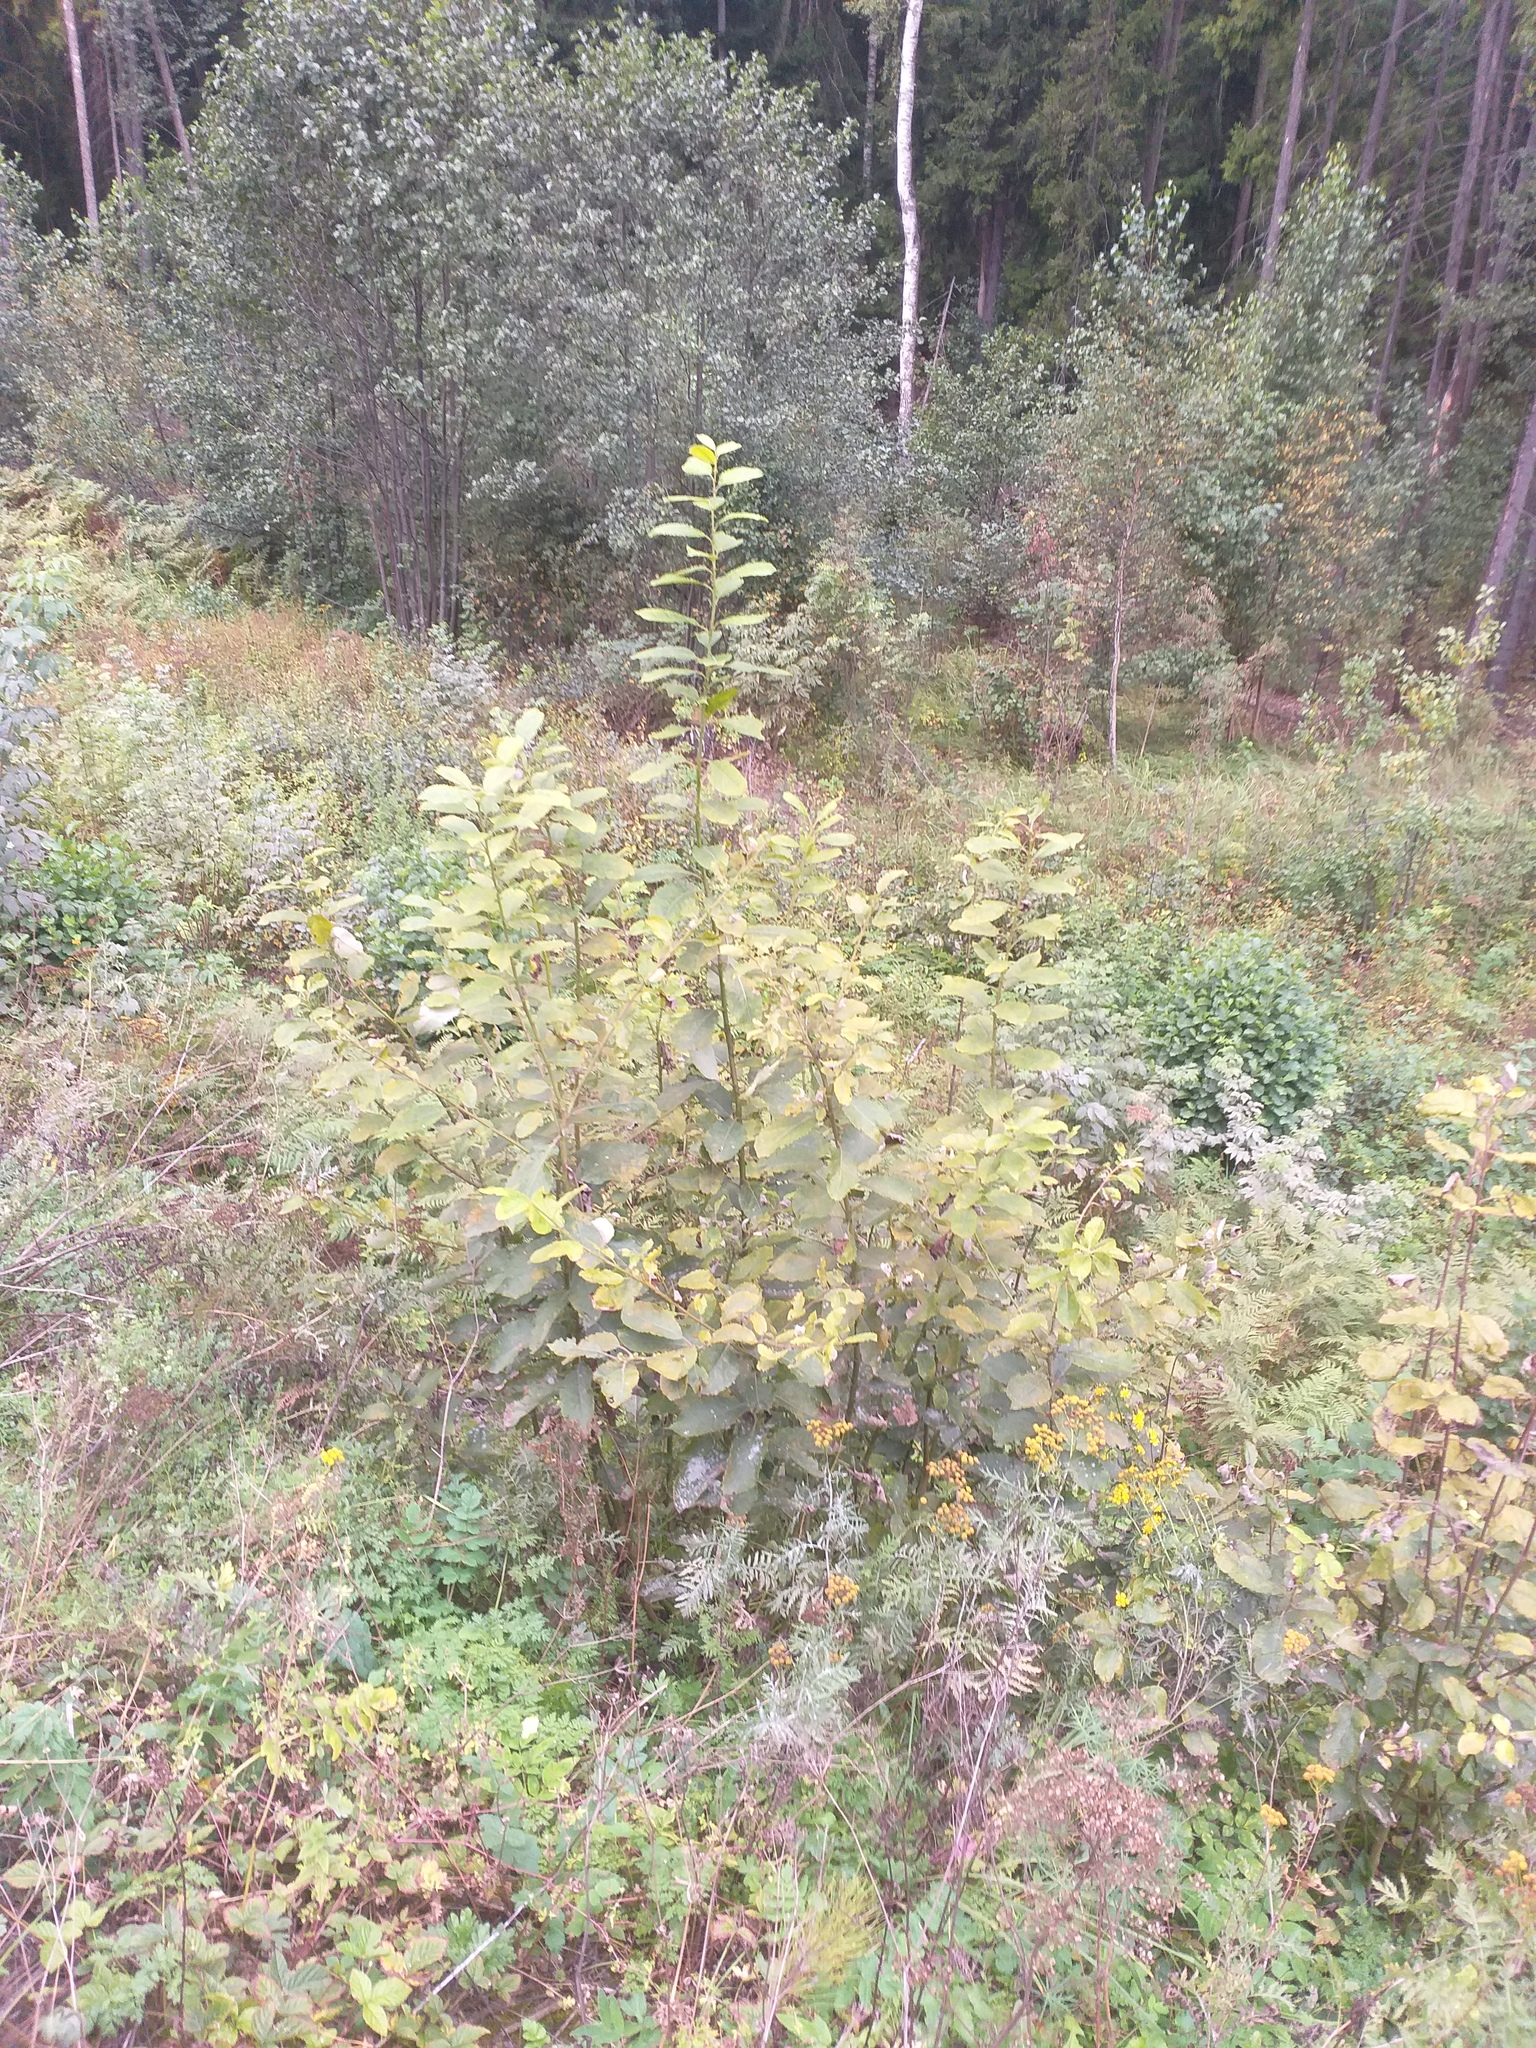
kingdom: Plantae
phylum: Tracheophyta
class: Magnoliopsida
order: Malpighiales
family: Salicaceae
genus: Salix
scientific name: Salix caprea
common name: Goat willow
